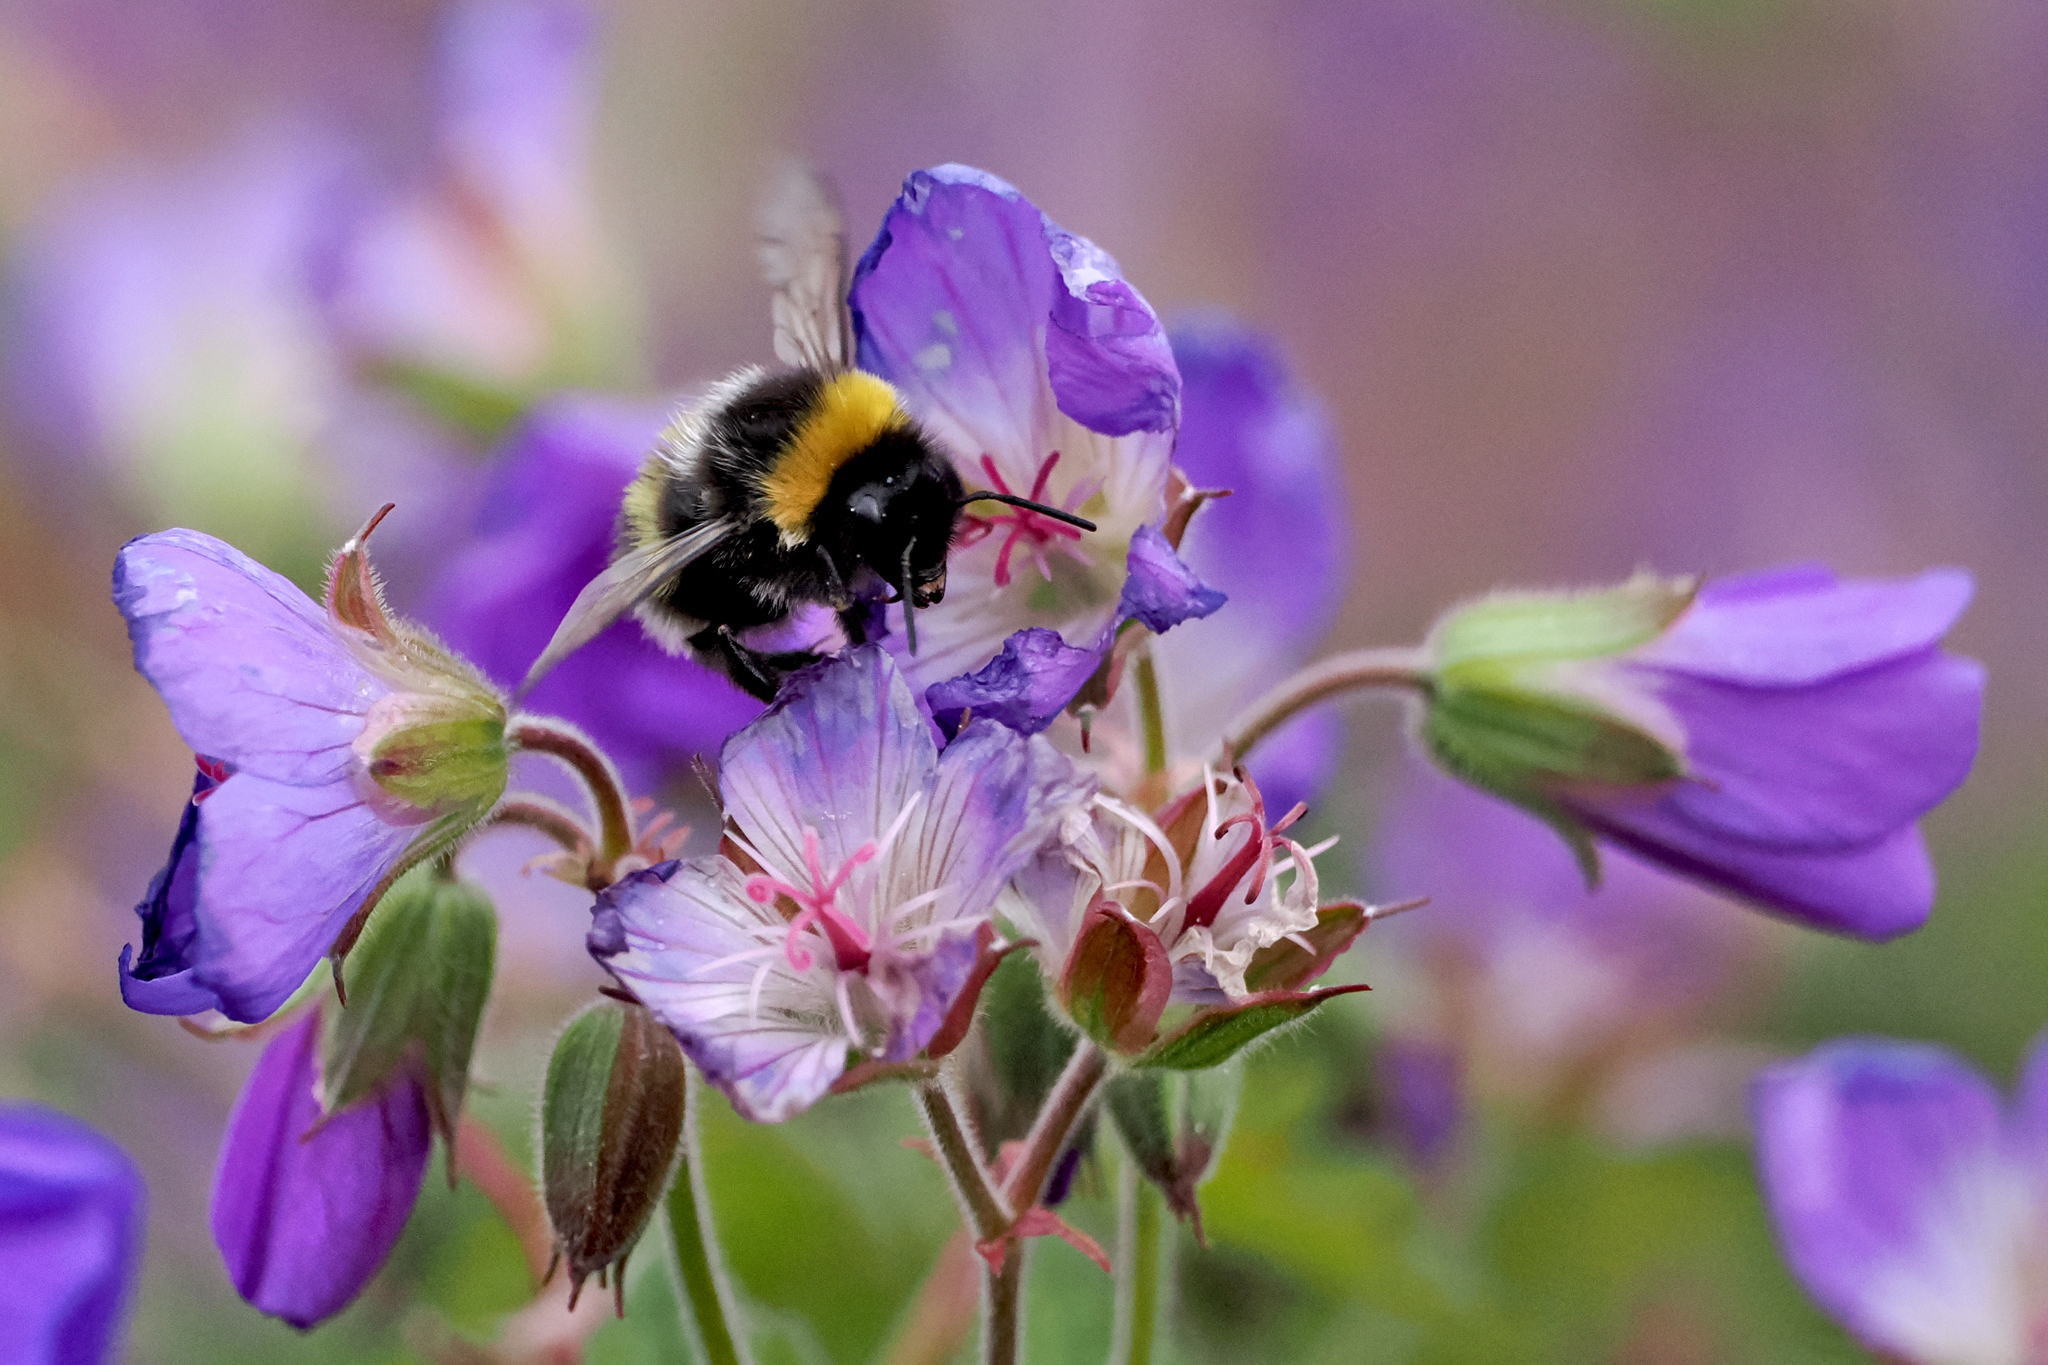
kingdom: Animalia
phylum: Arthropoda
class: Insecta
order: Hymenoptera
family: Apidae
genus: Bombus
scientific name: Bombus lucorum
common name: White-tailed bumblebee
